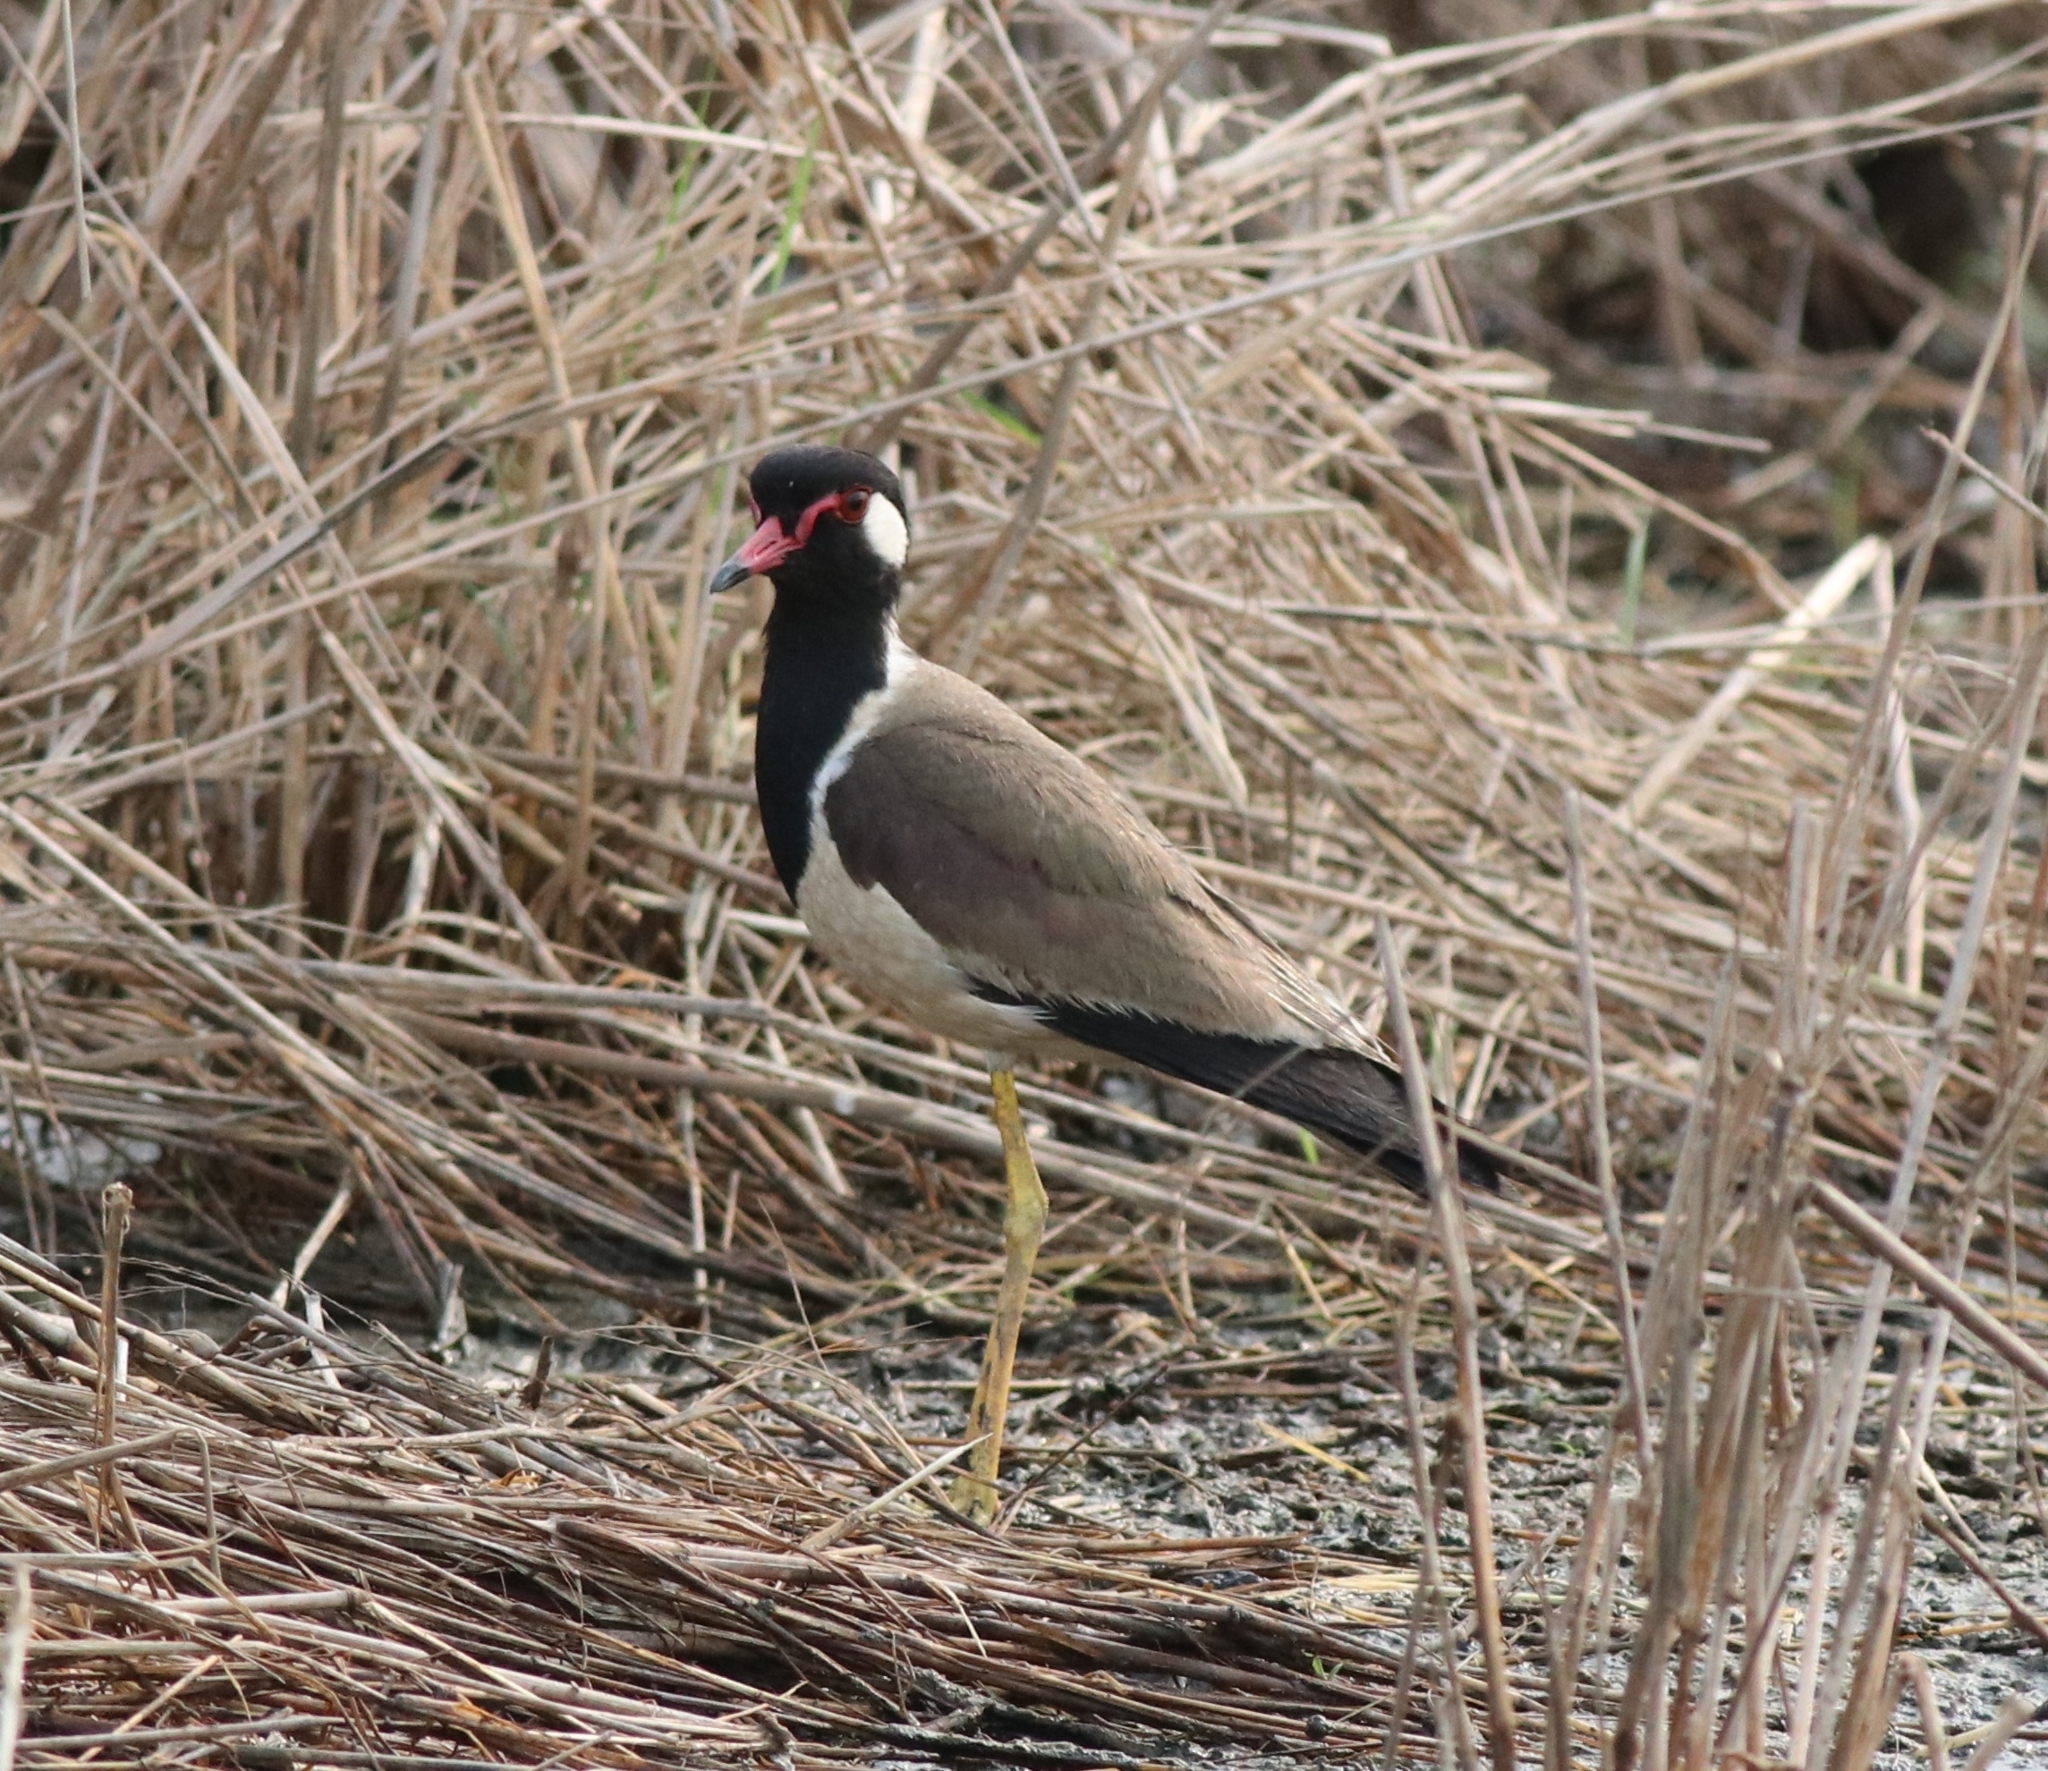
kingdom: Animalia
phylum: Chordata
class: Aves
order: Charadriiformes
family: Charadriidae
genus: Vanellus
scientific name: Vanellus indicus
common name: Red-wattled lapwing
